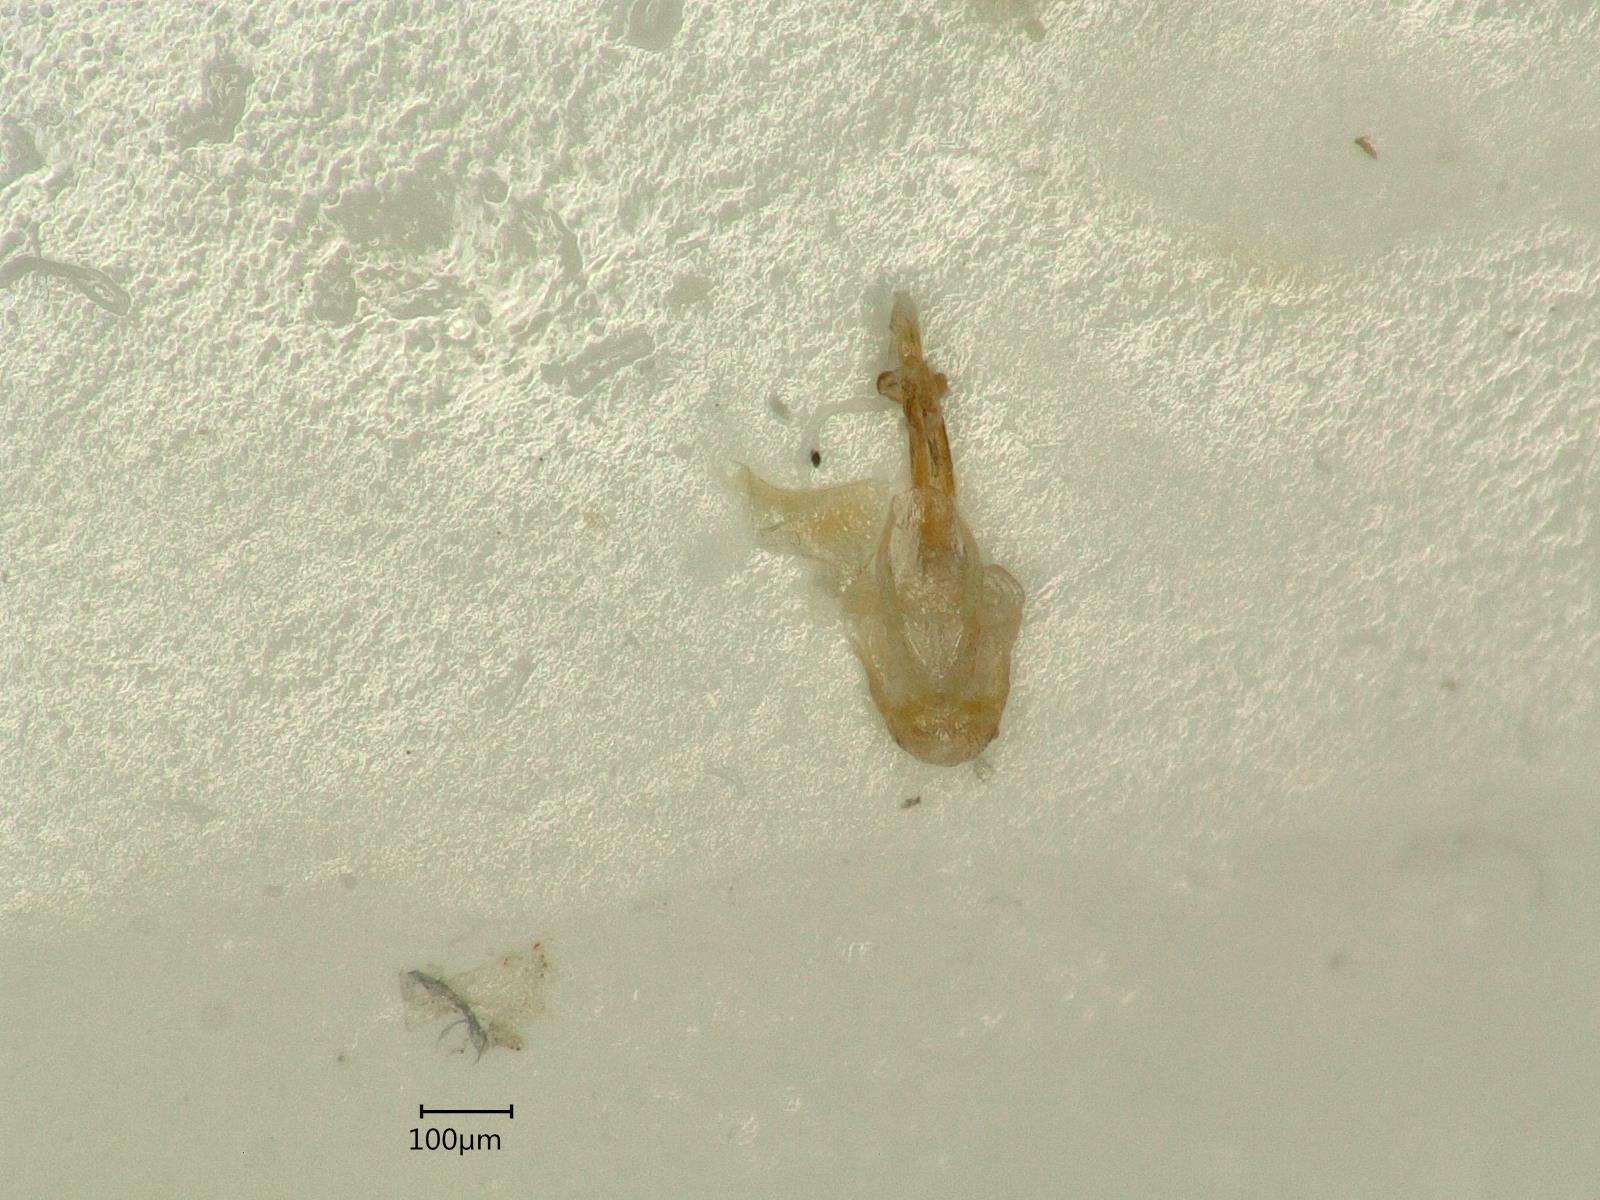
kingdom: Animalia
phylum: Arthropoda
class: Insecta
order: Hemiptera
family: Cicadellidae
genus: Psammotettix
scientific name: Psammotettix confinis
